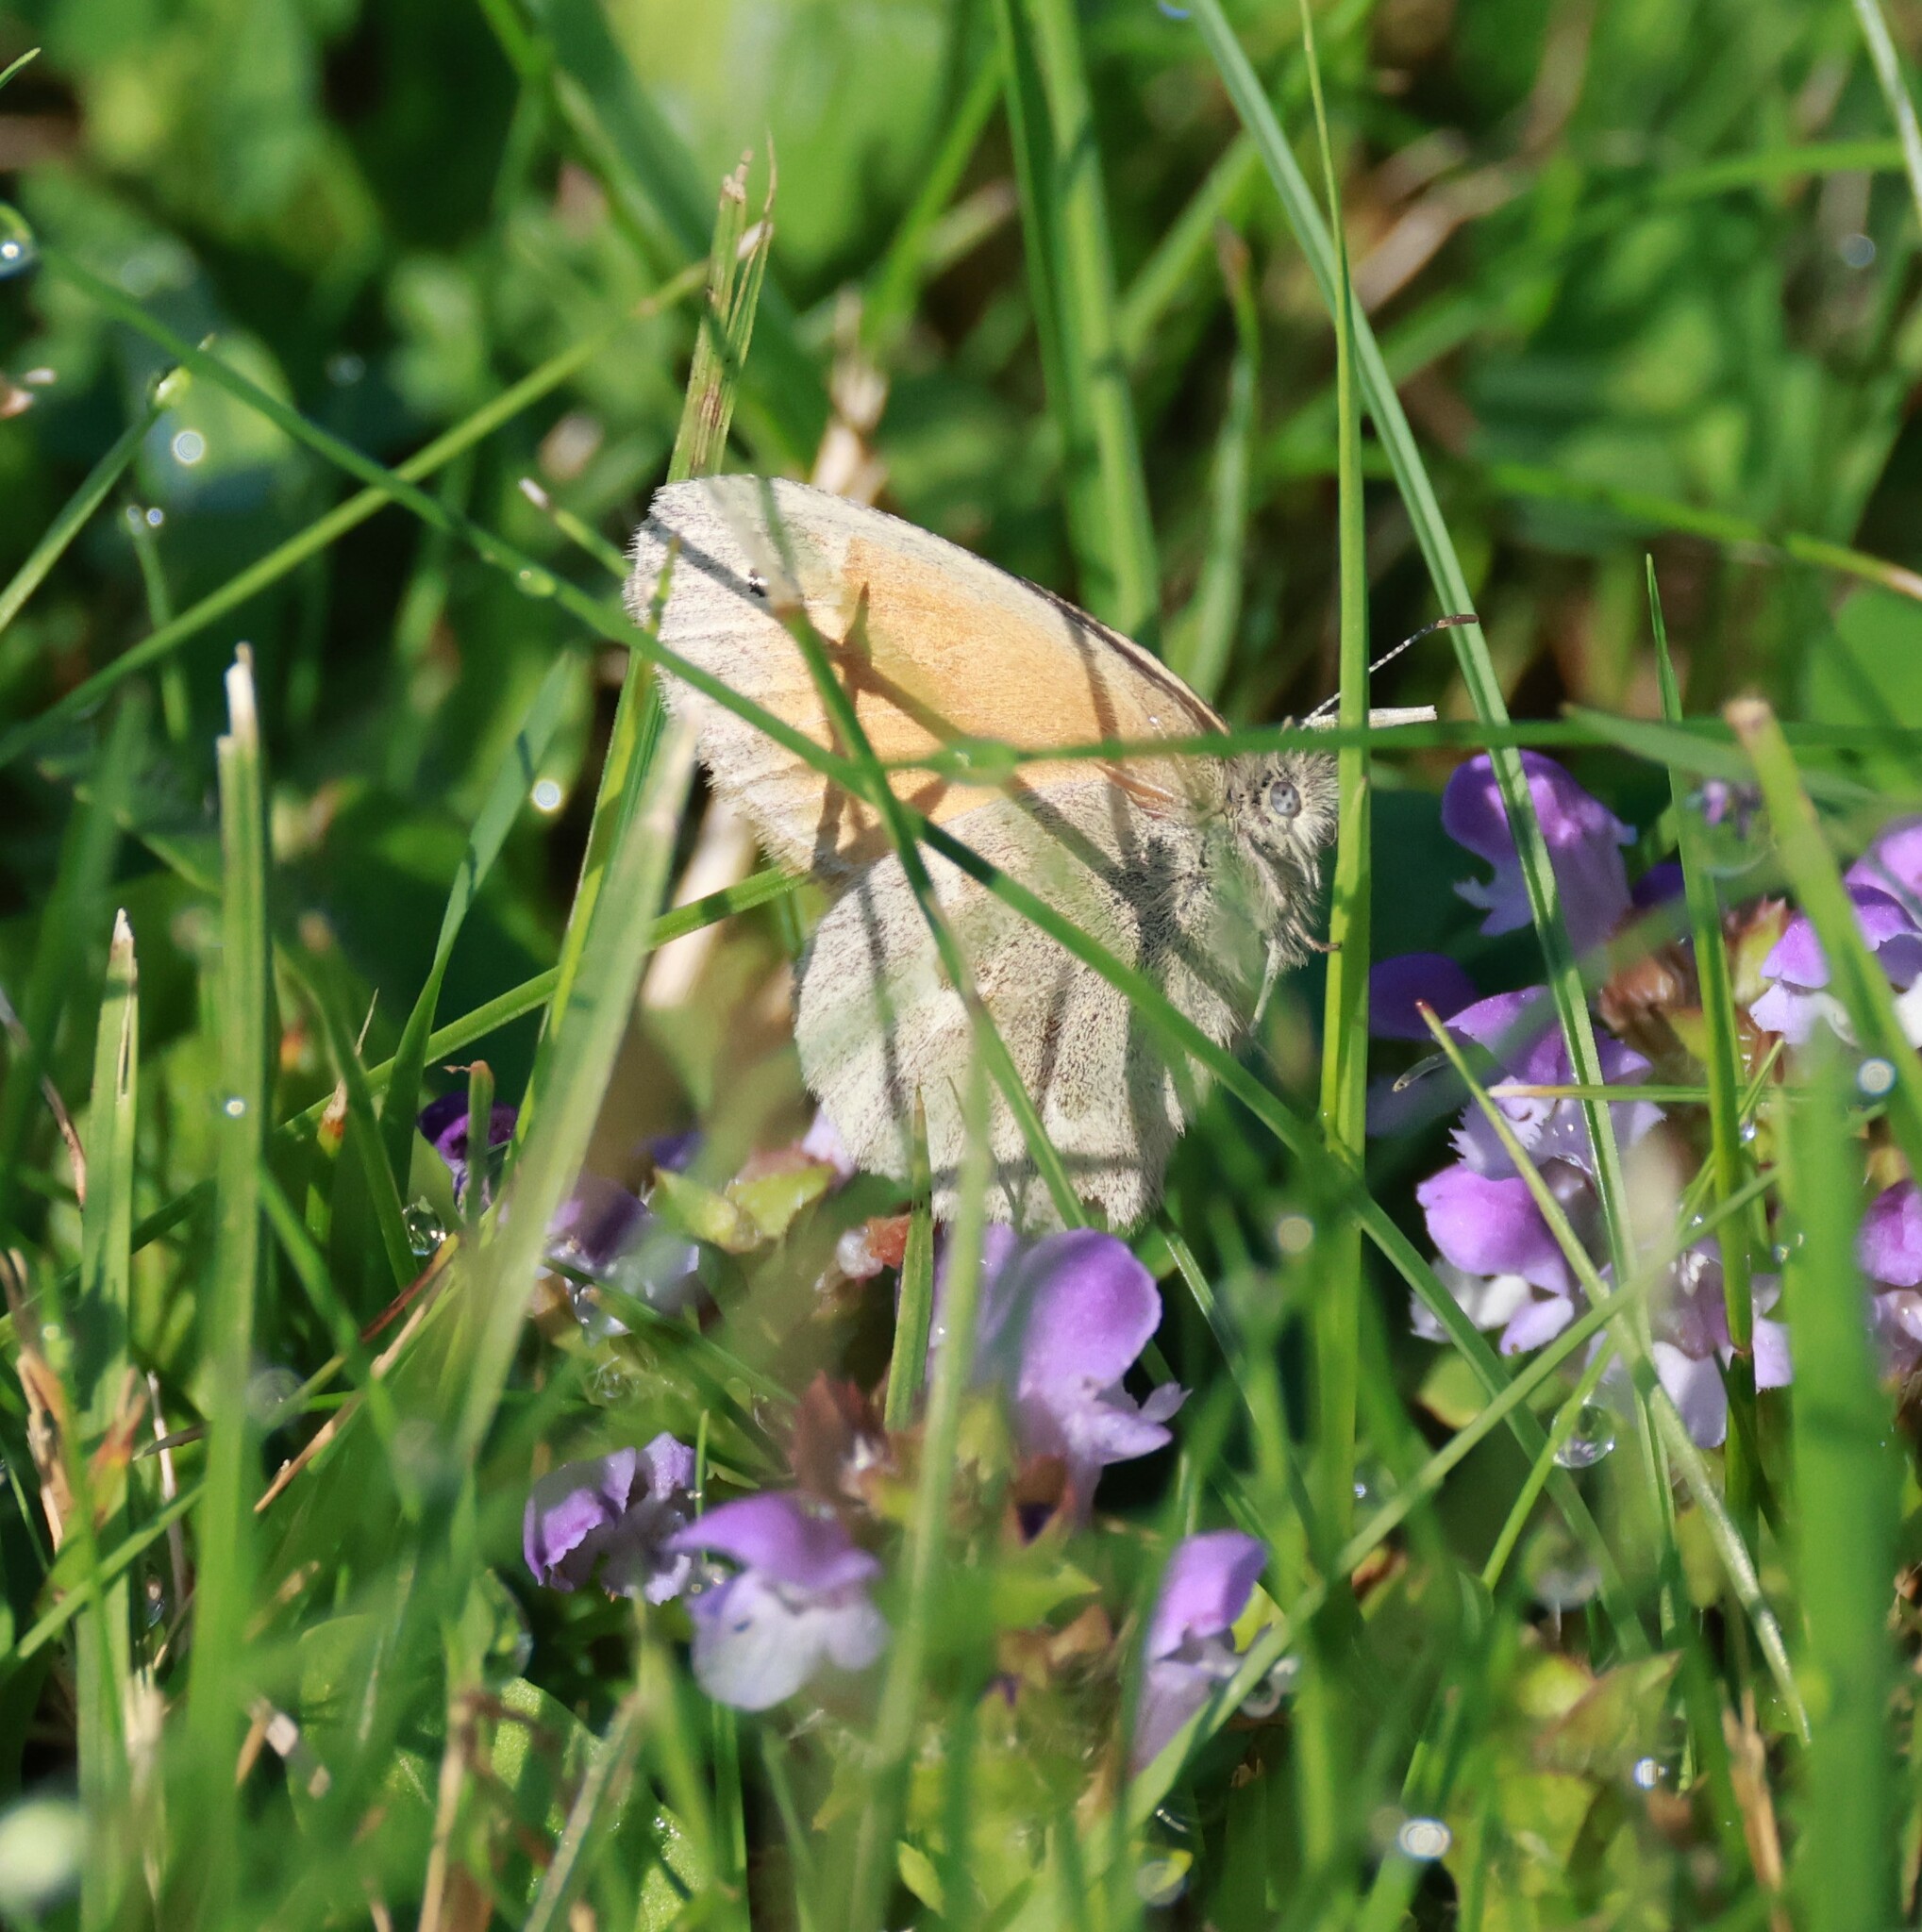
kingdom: Animalia
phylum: Arthropoda
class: Insecta
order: Lepidoptera
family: Nymphalidae
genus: Coenonympha
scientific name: Coenonympha california
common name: Common ringlet
